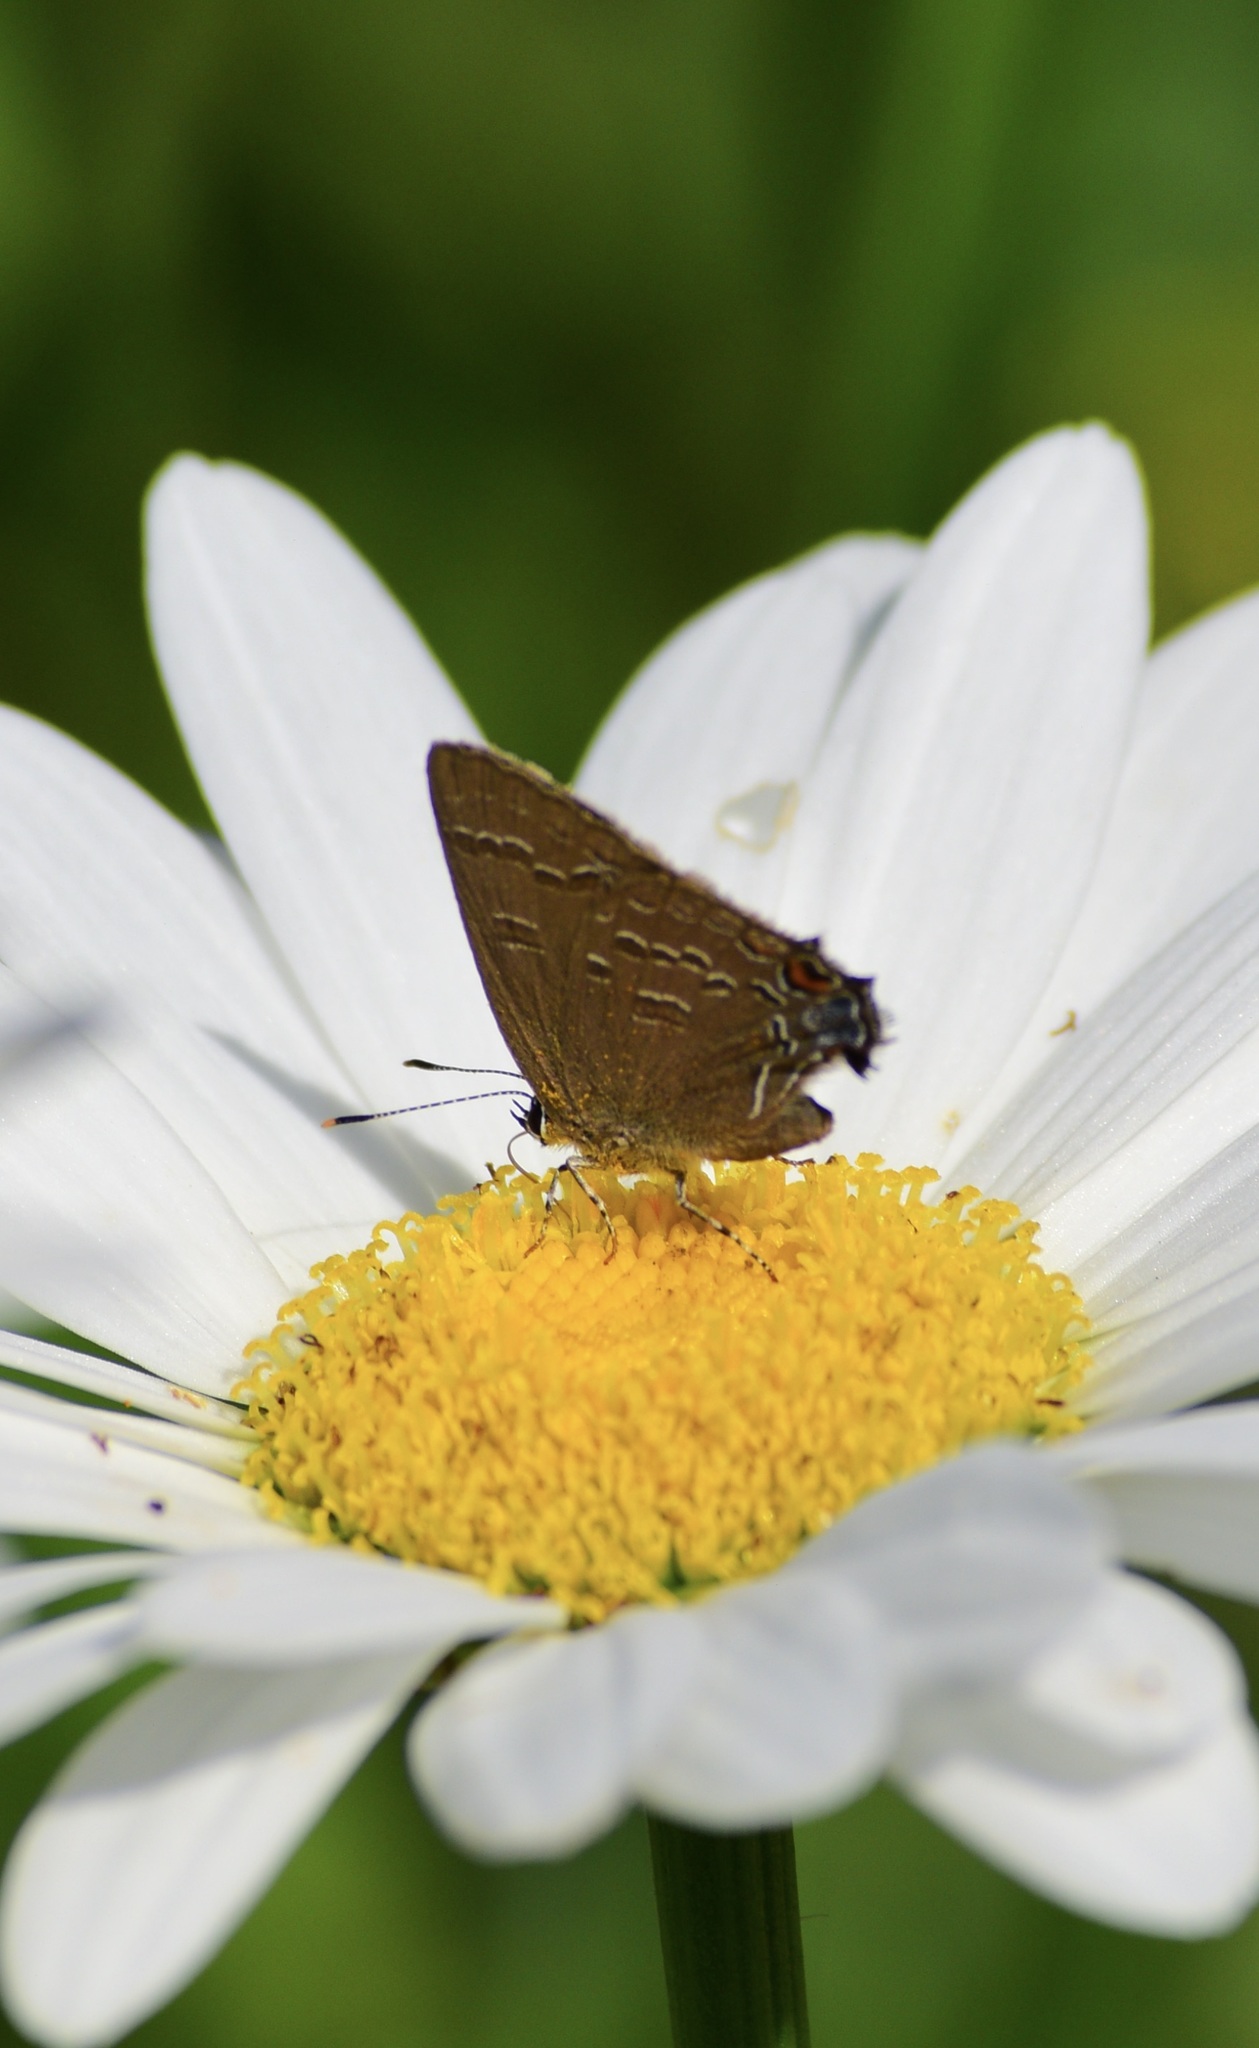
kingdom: Animalia
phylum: Arthropoda
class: Insecta
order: Lepidoptera
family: Lycaenidae
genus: Satyrium
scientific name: Satyrium calanus
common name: Banded hairstreak
